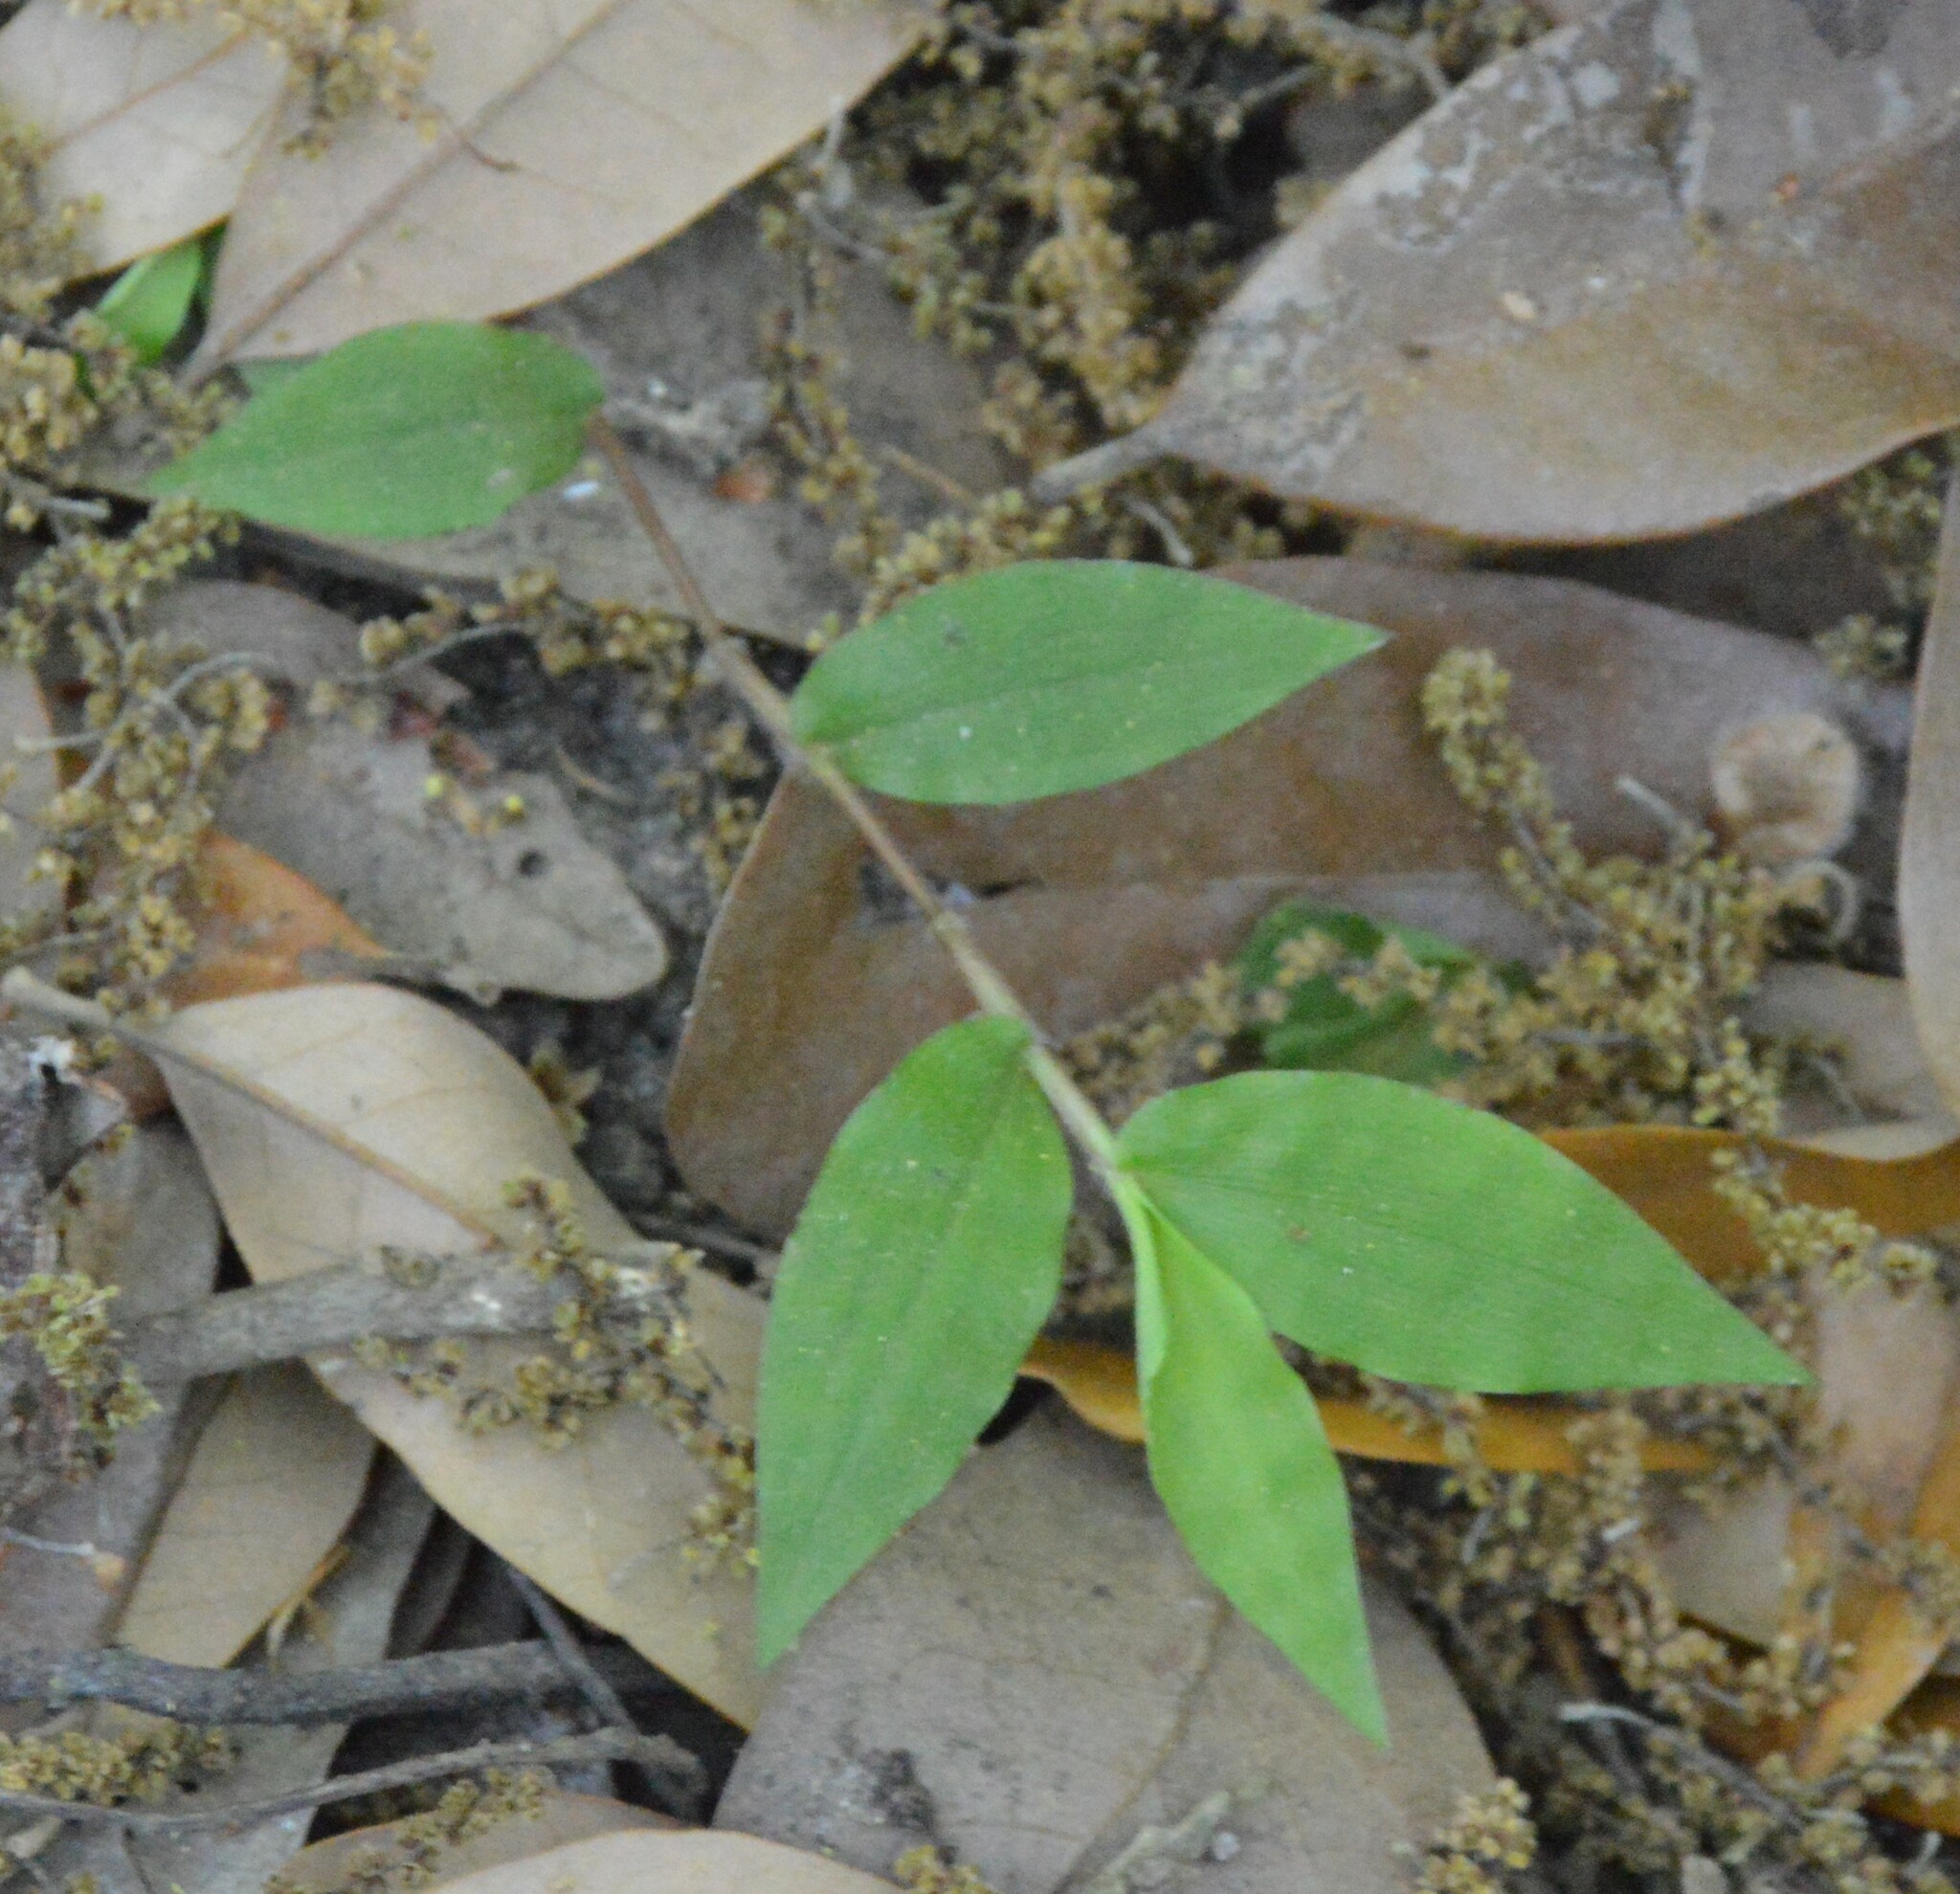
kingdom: Plantae
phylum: Tracheophyta
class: Liliopsida
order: Poales
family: Poaceae
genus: Oplismenus
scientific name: Oplismenus hirtellus
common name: Basketgrass
